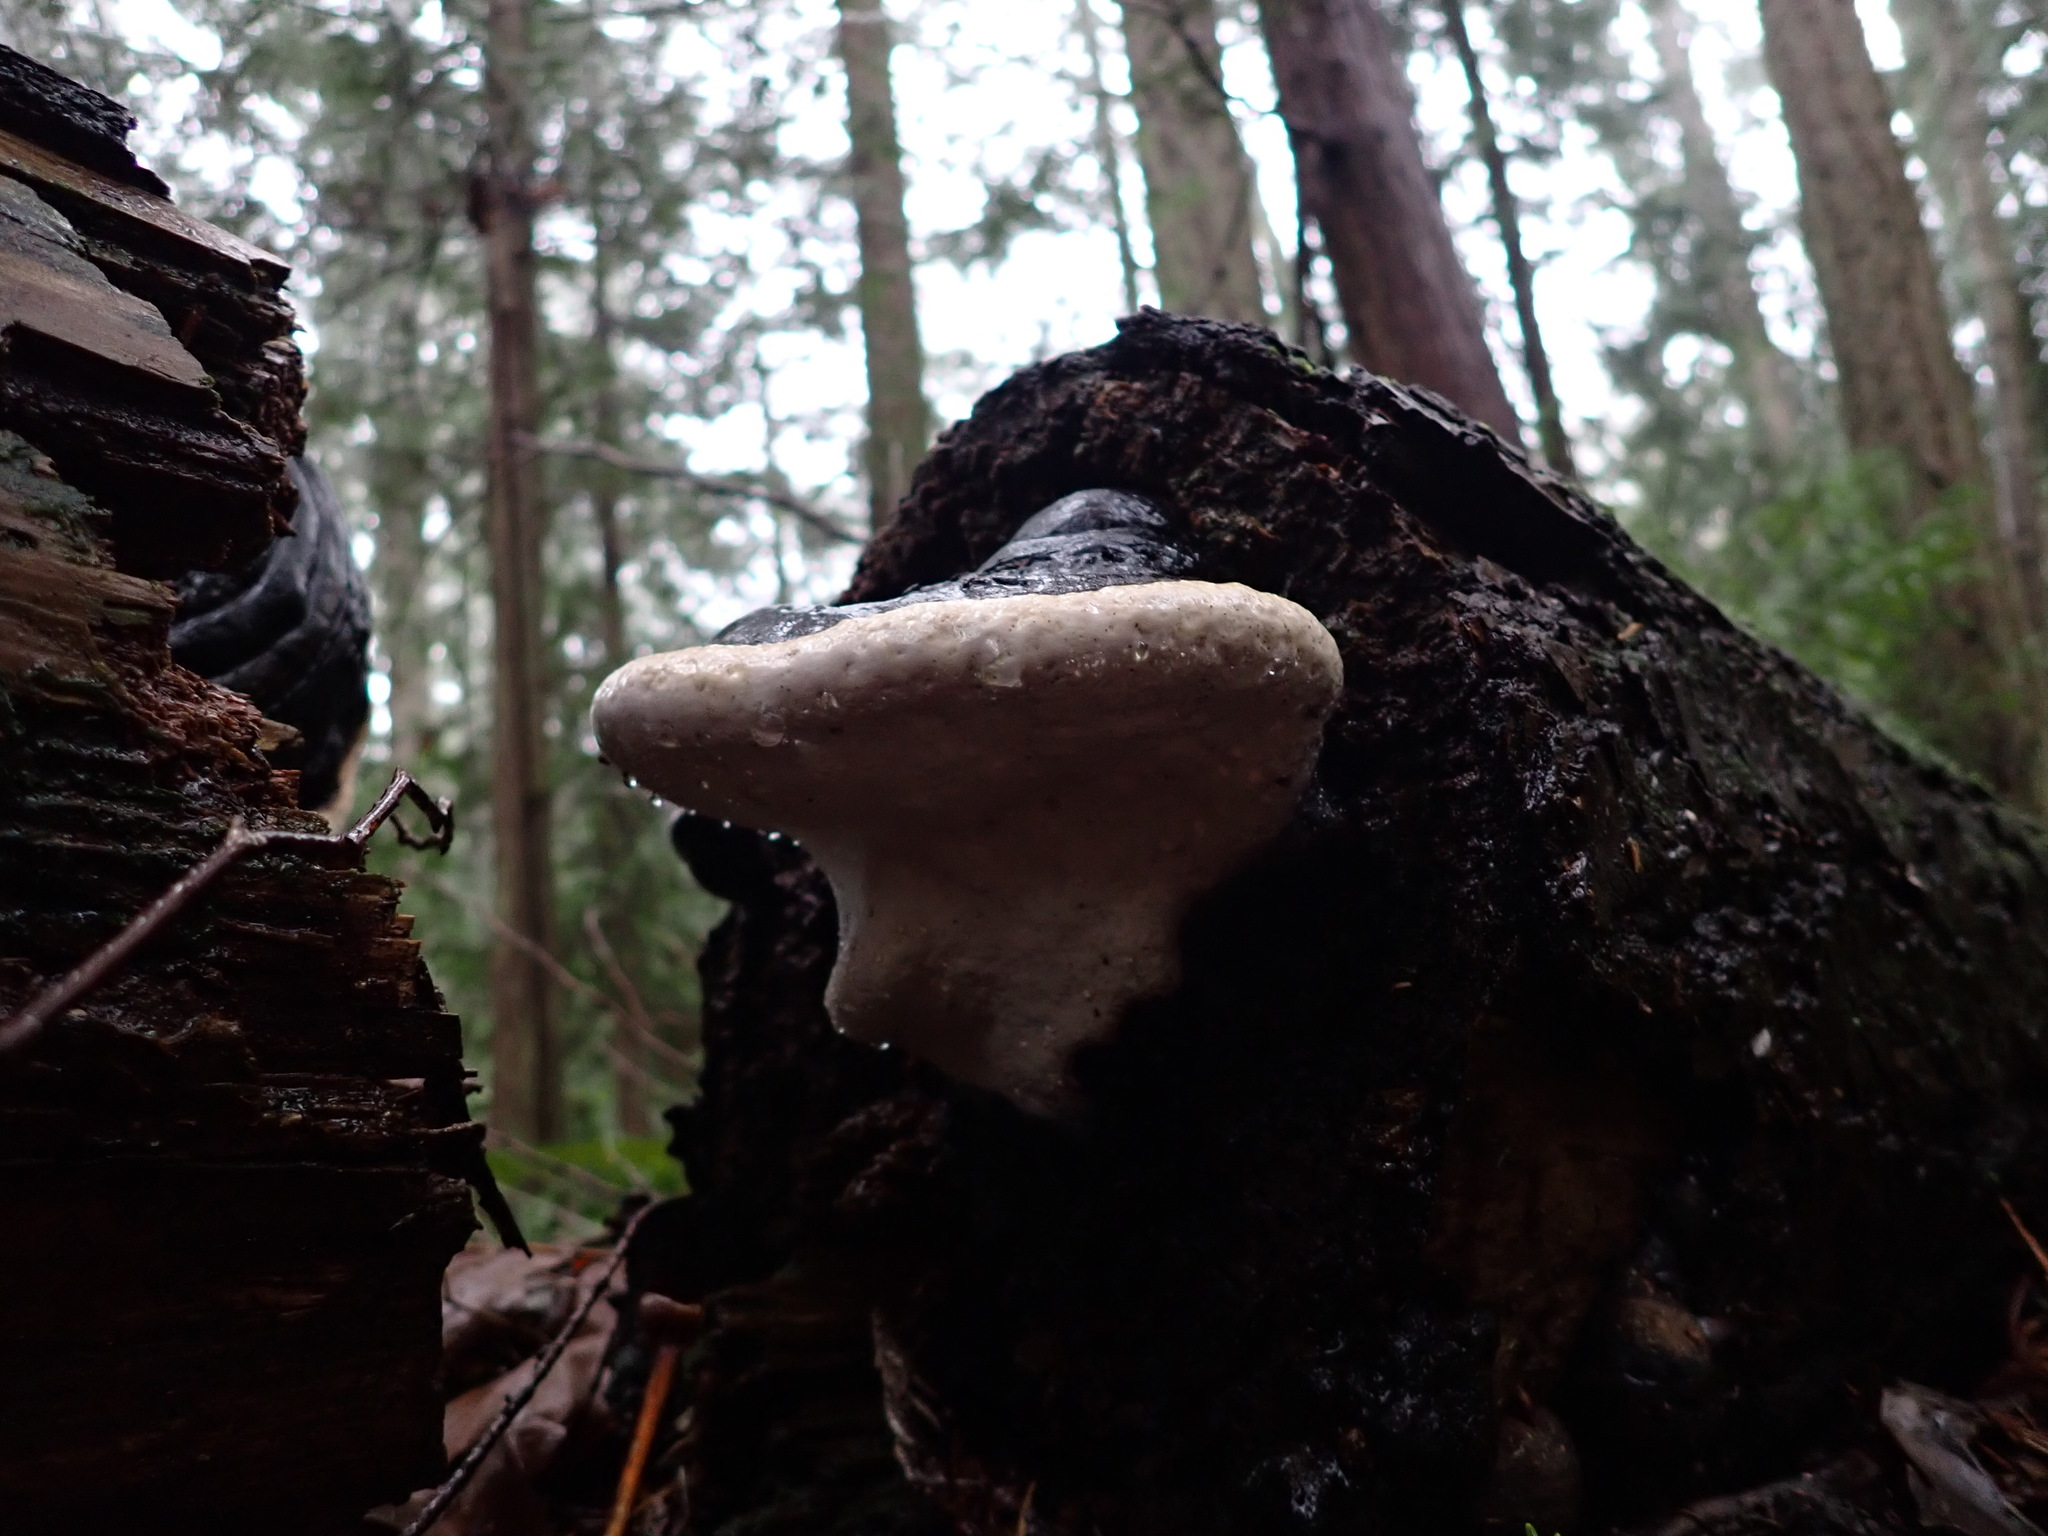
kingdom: Fungi
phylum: Basidiomycota
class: Agaricomycetes
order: Polyporales
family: Fomitopsidaceae
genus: Fomitopsis
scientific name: Fomitopsis mounceae
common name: Northern red belt
